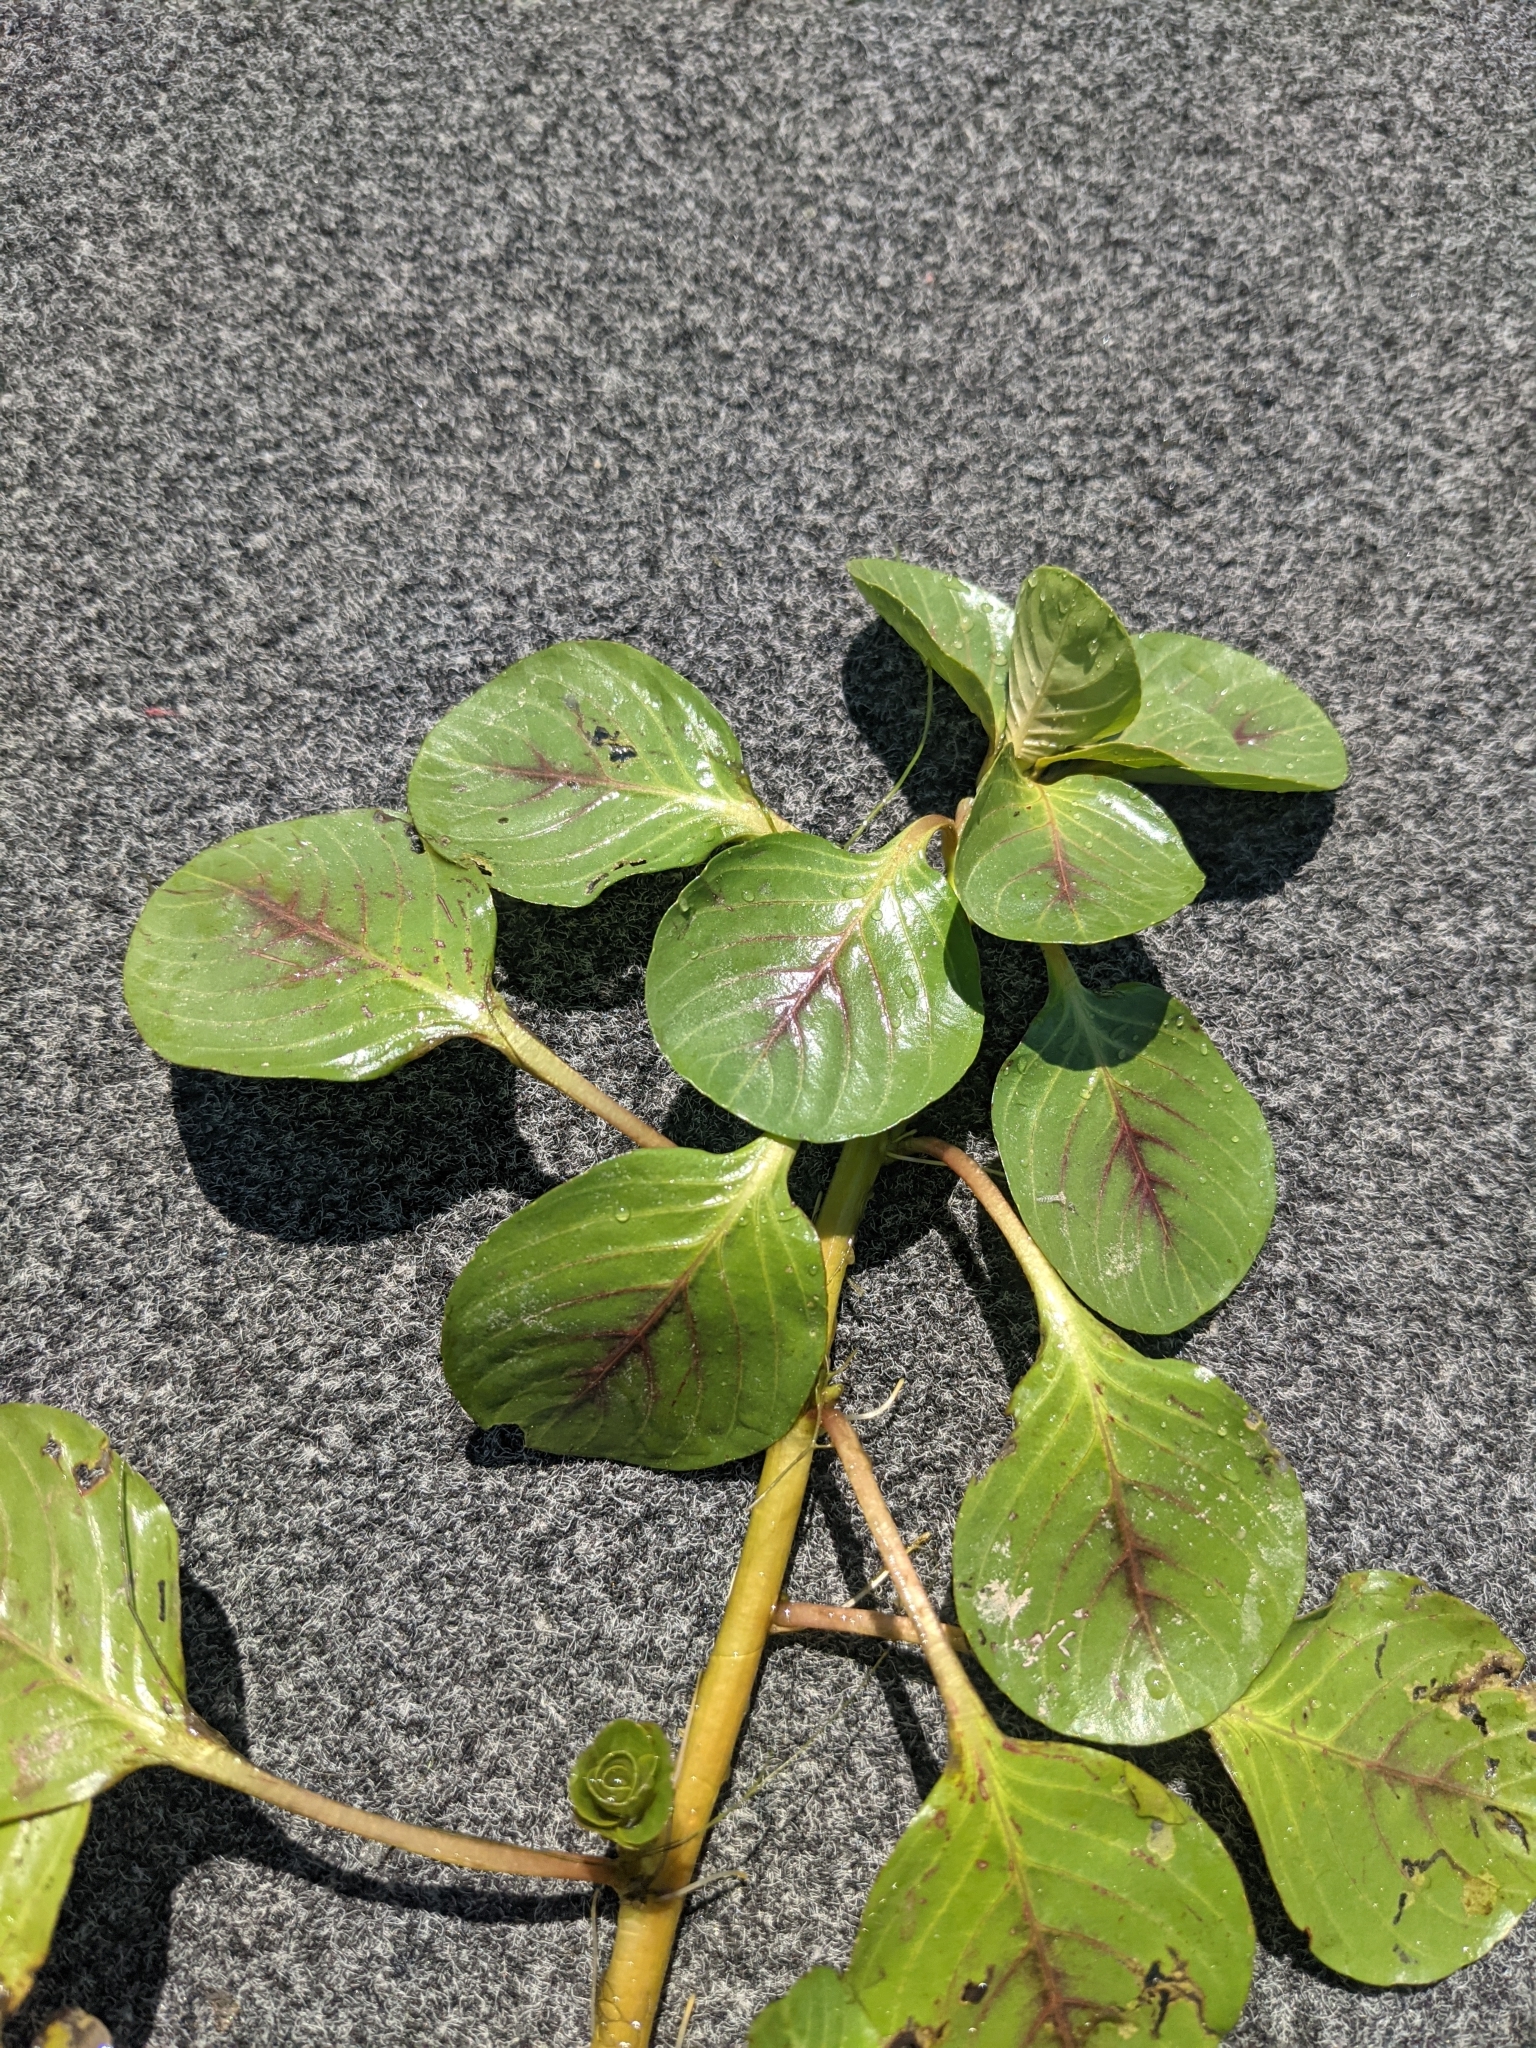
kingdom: Plantae
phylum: Tracheophyta
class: Magnoliopsida
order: Myrtales
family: Onagraceae
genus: Ludwigia
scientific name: Ludwigia peploides
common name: Floating primrose-willow
